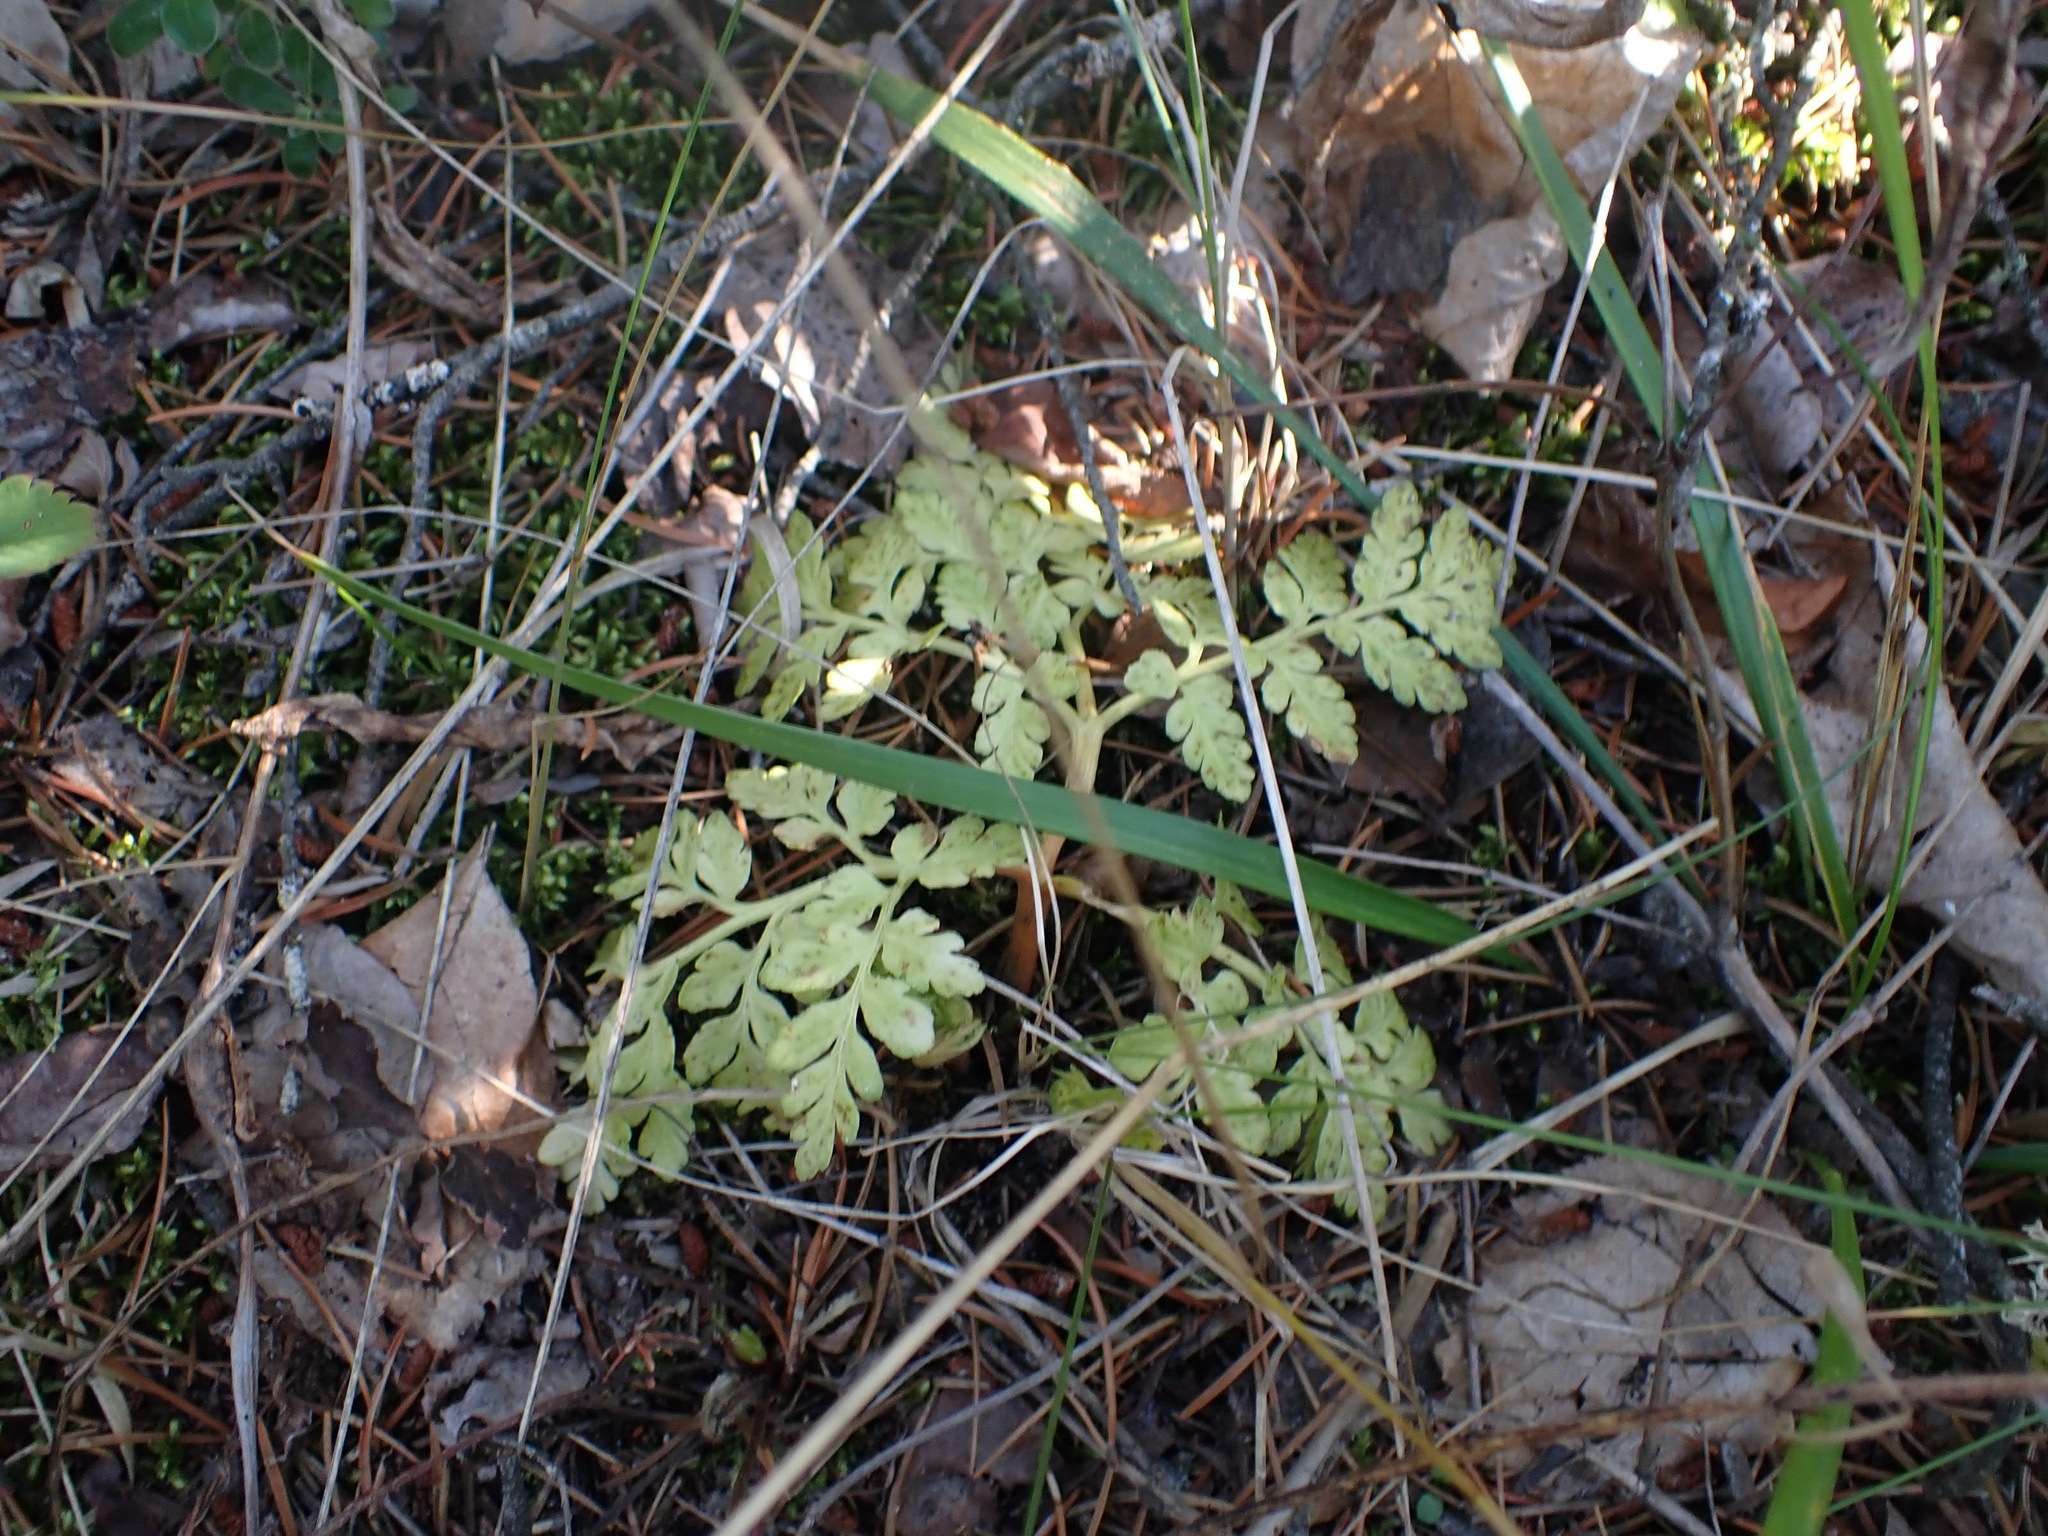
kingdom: Plantae
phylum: Tracheophyta
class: Polypodiopsida
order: Ophioglossales
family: Ophioglossaceae
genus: Sceptridium
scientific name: Sceptridium multifidum
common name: Leathery grape fern
